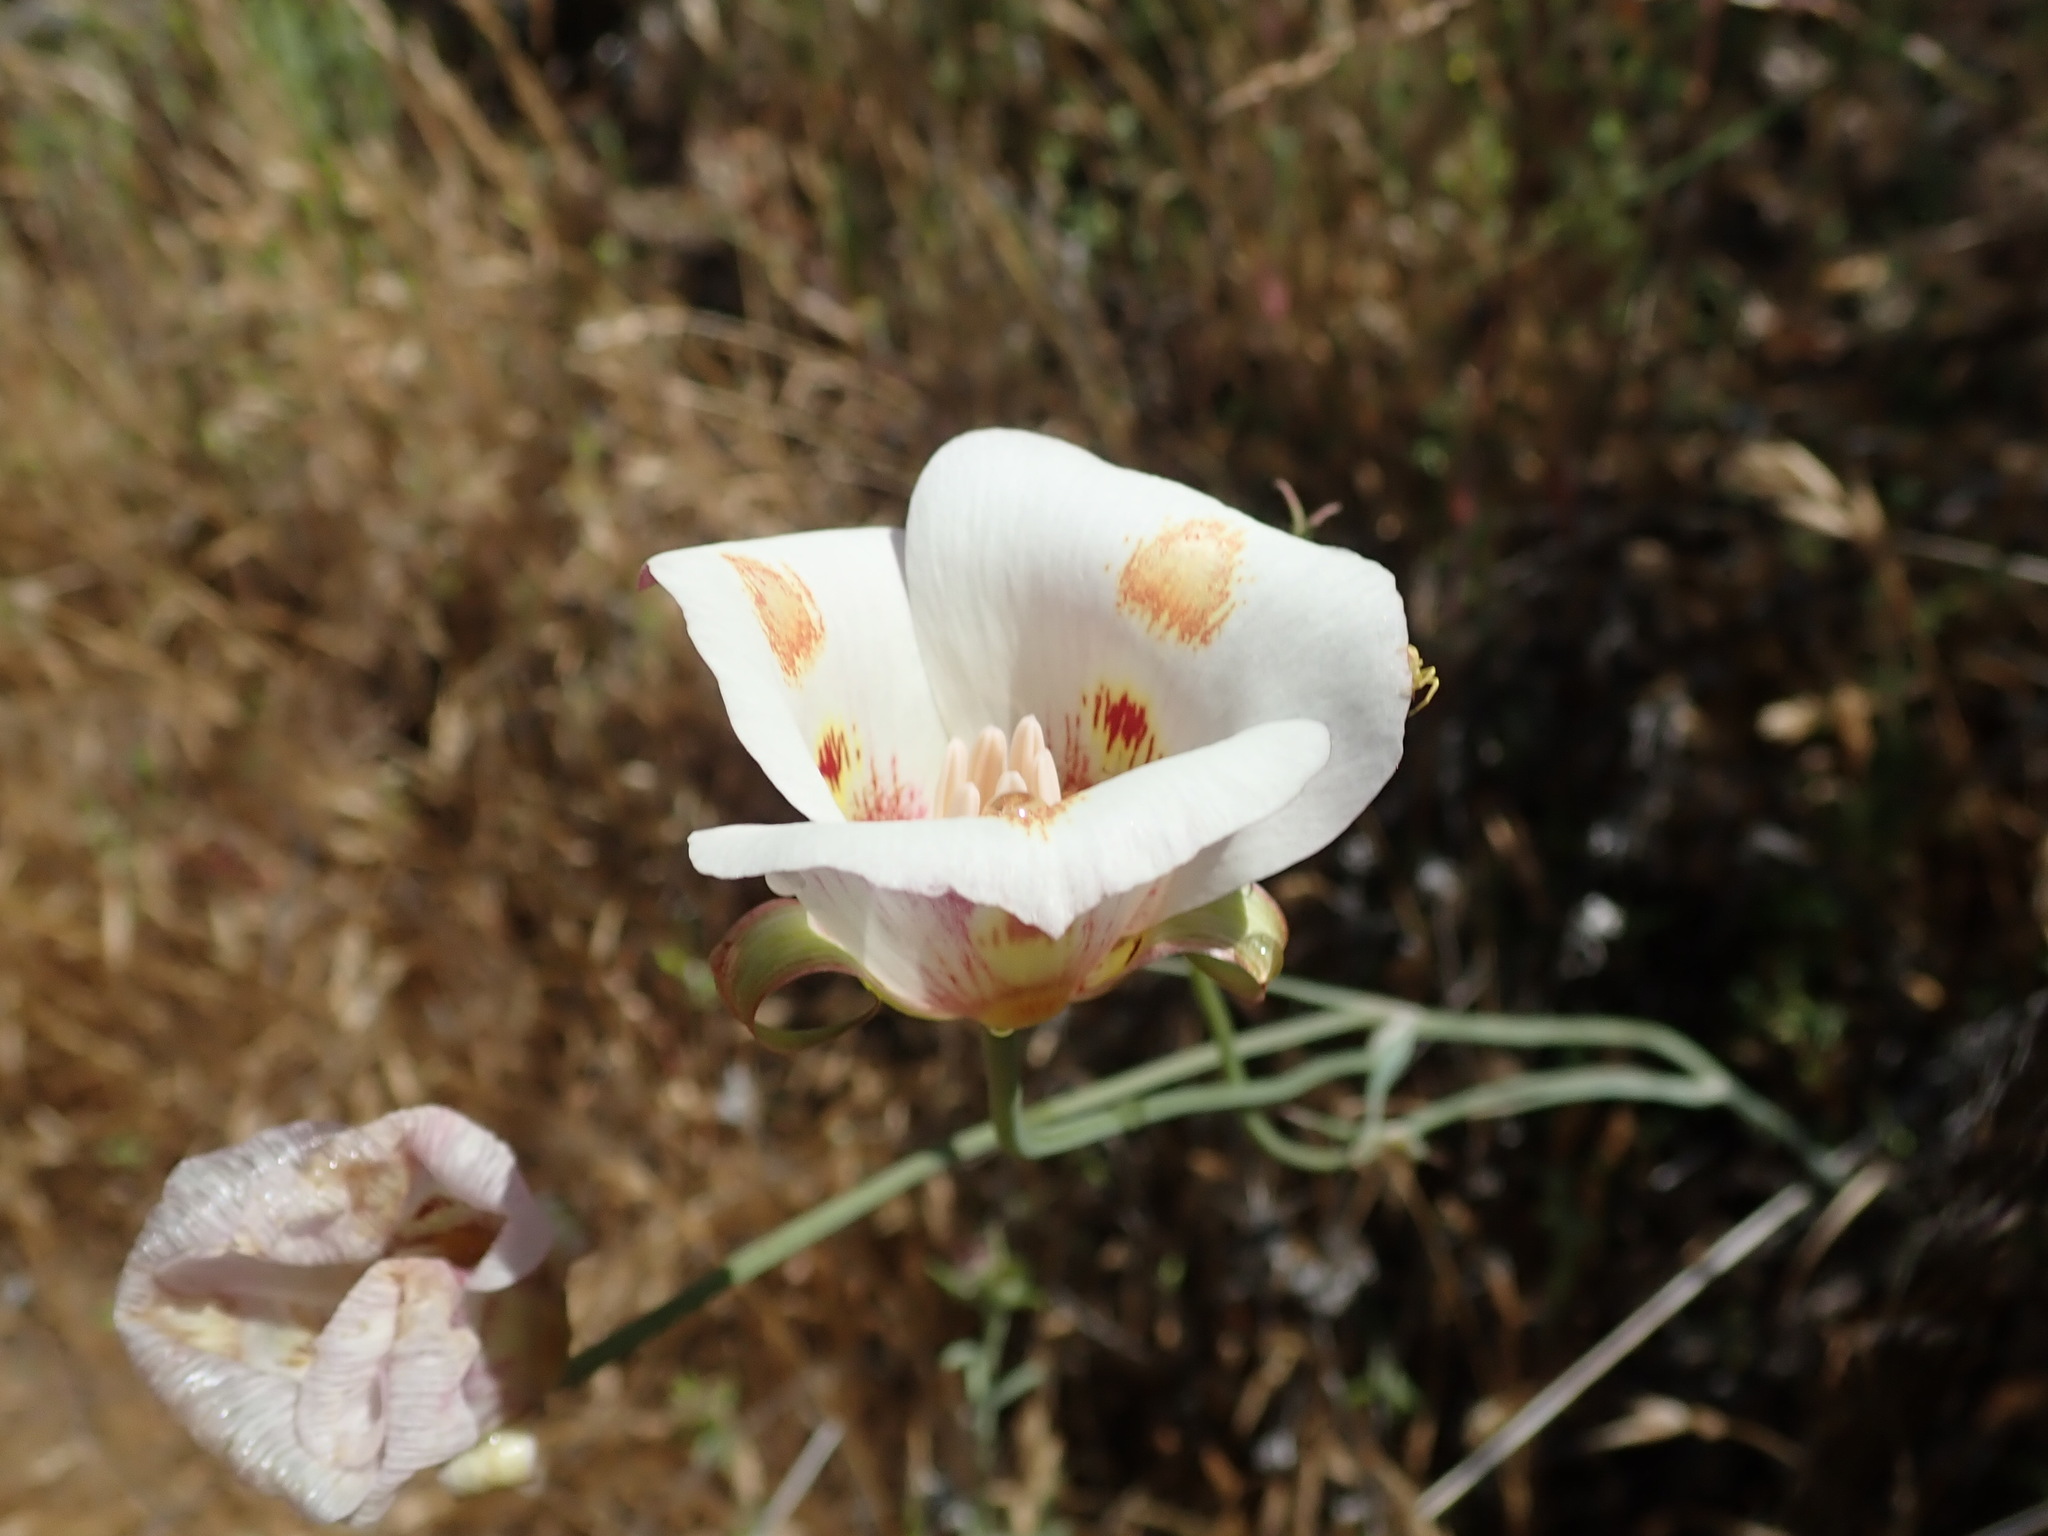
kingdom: Plantae
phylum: Tracheophyta
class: Liliopsida
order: Liliales
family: Liliaceae
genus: Calochortus
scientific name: Calochortus venustus
